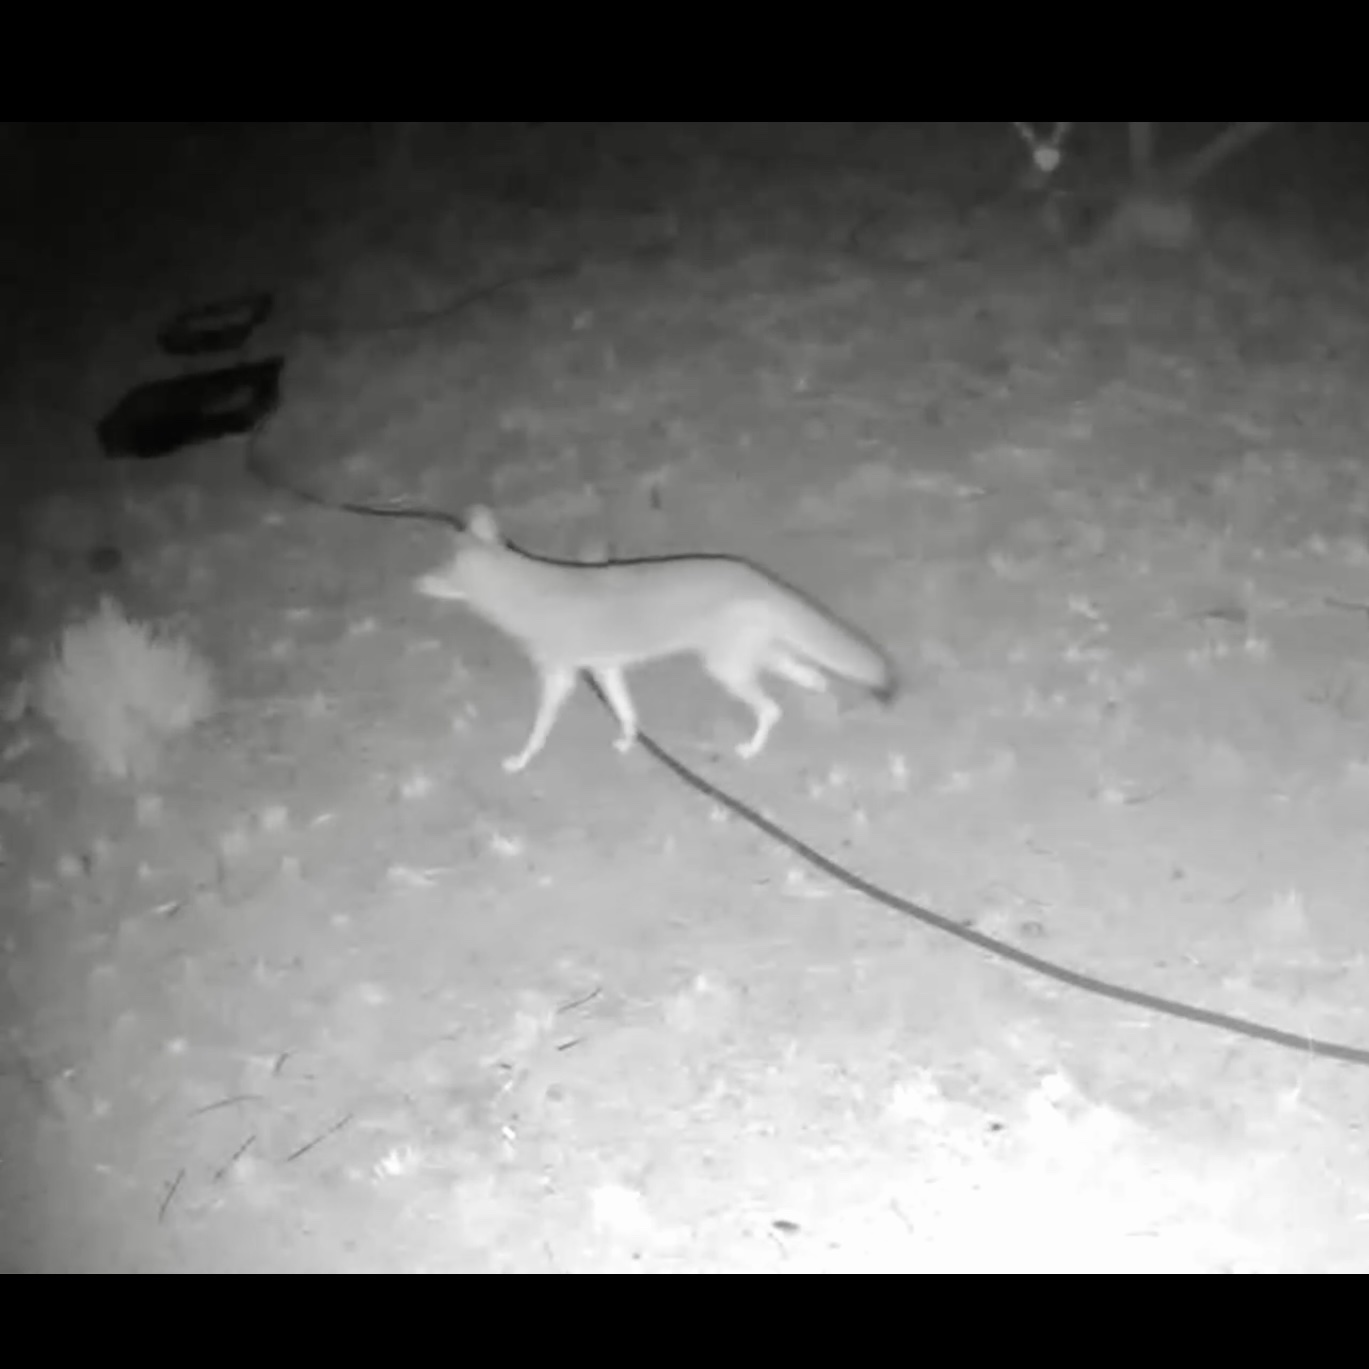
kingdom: Animalia
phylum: Chordata
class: Mammalia
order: Carnivora
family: Canidae
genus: Canis
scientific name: Canis latrans
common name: Coyote
